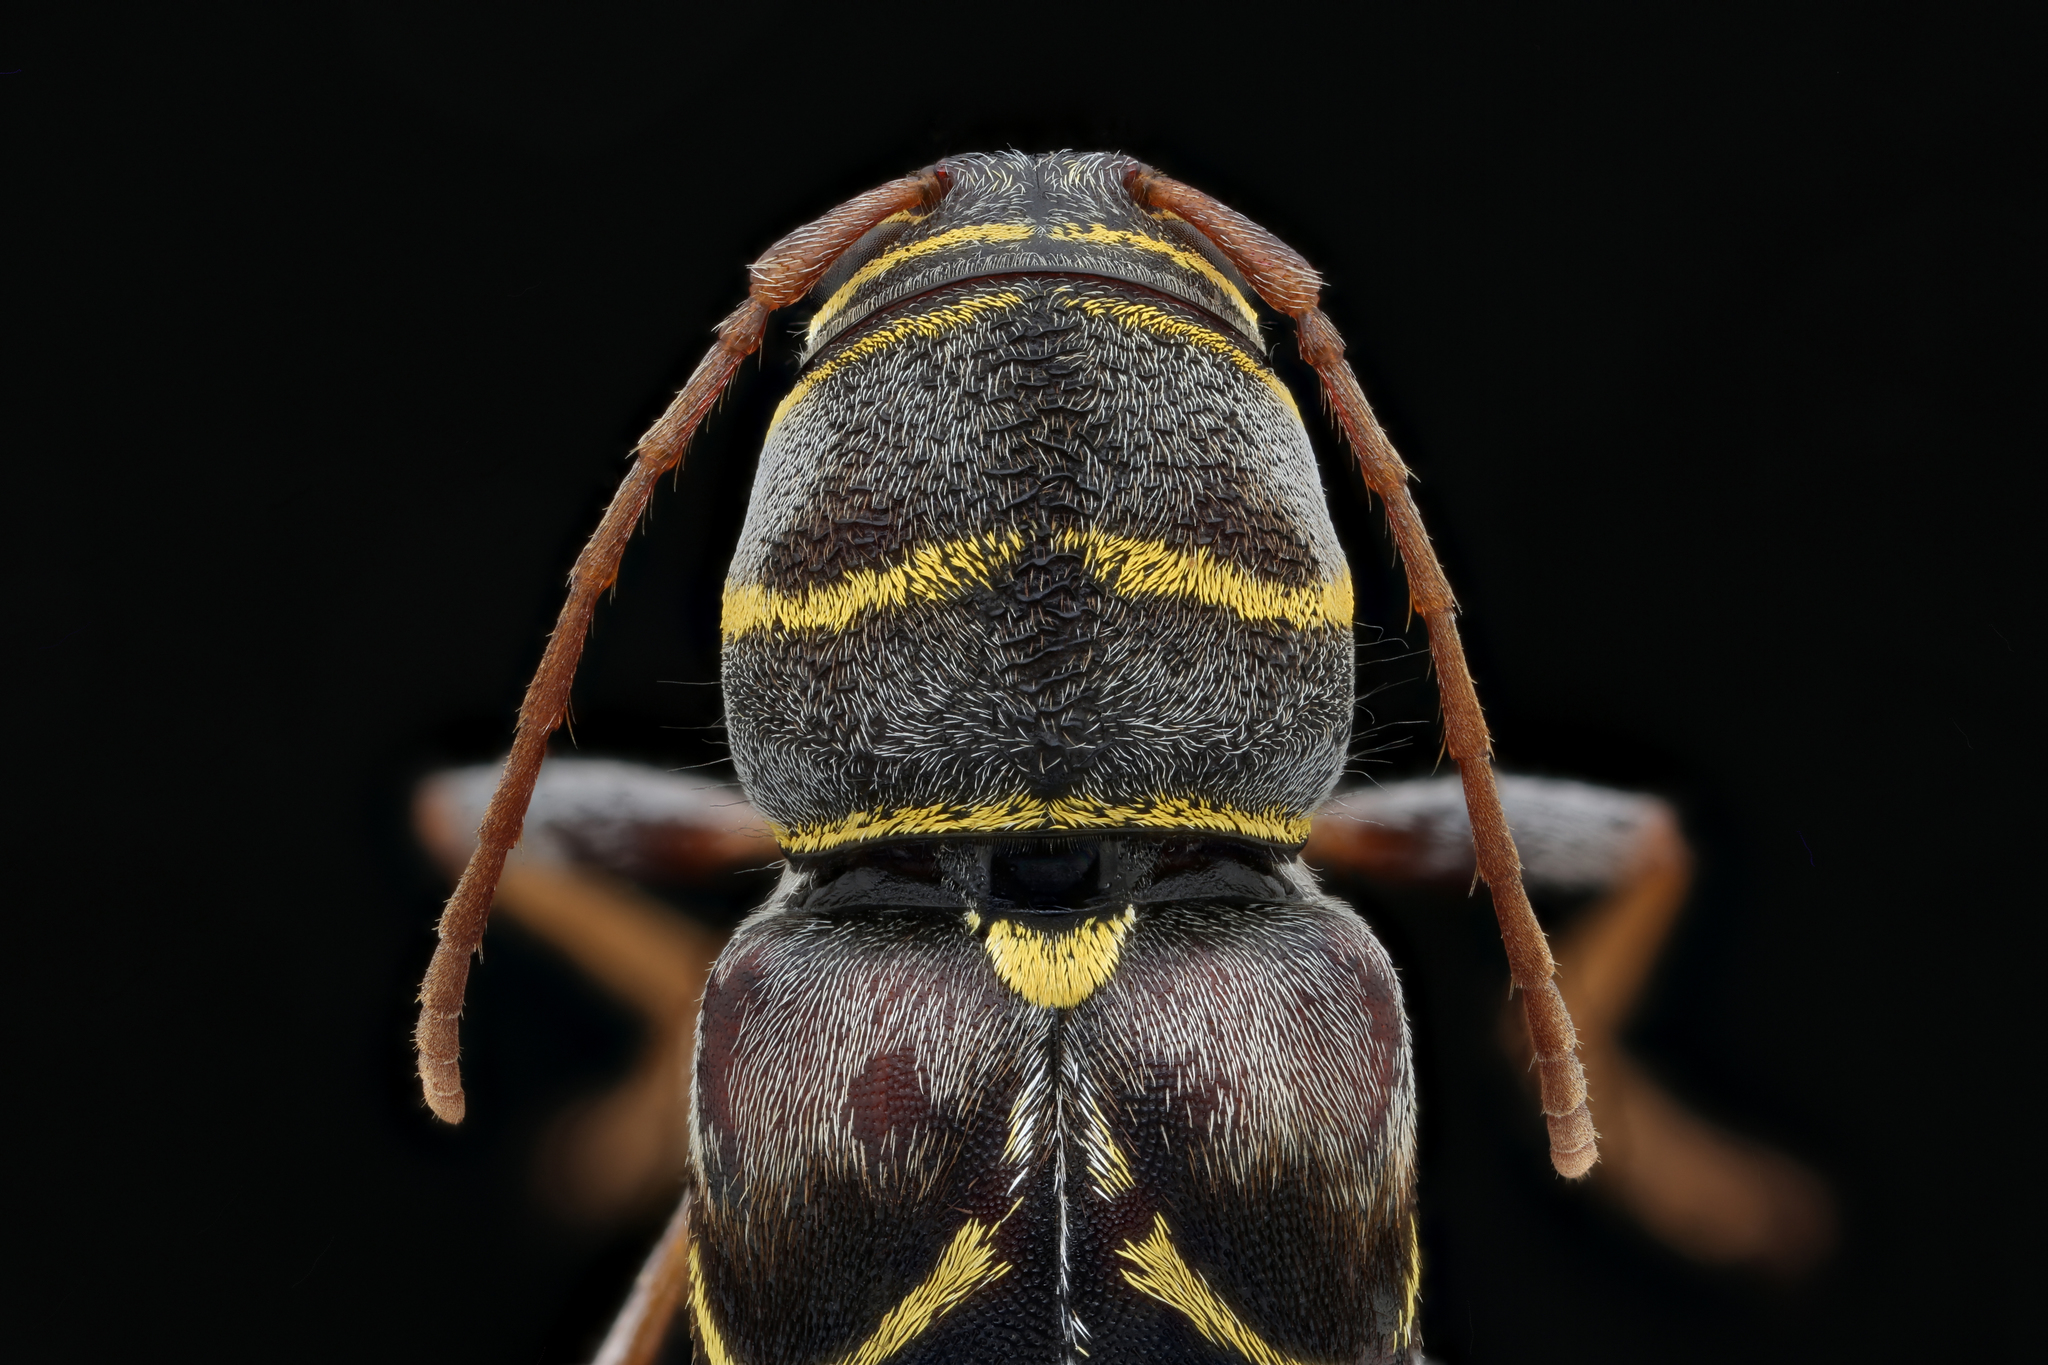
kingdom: Animalia
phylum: Arthropoda
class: Insecta
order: Coleoptera
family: Cerambycidae
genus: Neoclytus
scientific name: Neoclytus scutellaris
